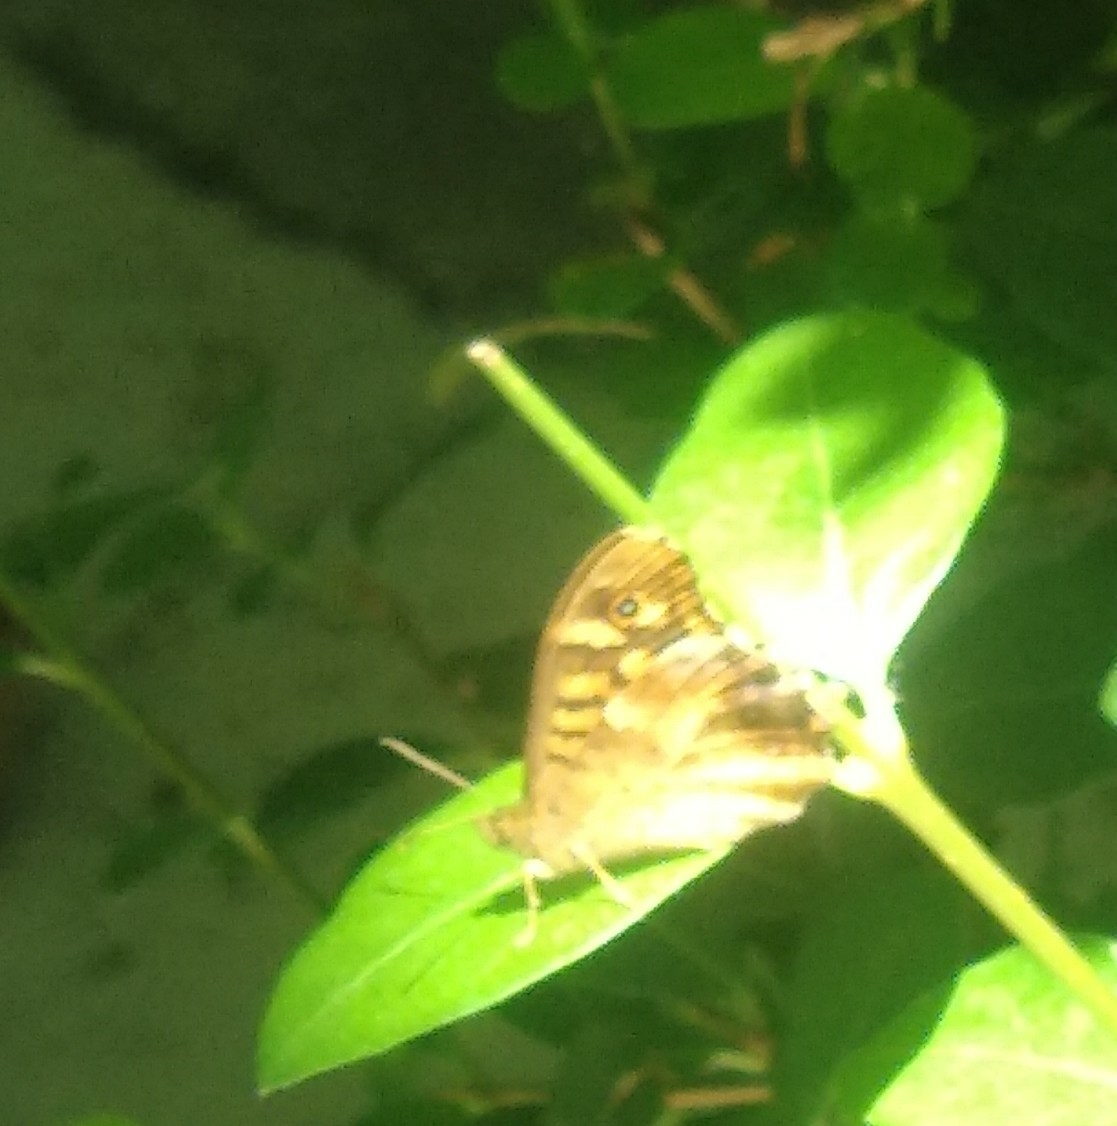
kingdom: Animalia
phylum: Arthropoda
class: Insecta
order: Lepidoptera
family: Nymphalidae
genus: Pararge
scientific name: Pararge aegeria
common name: Speckled wood
